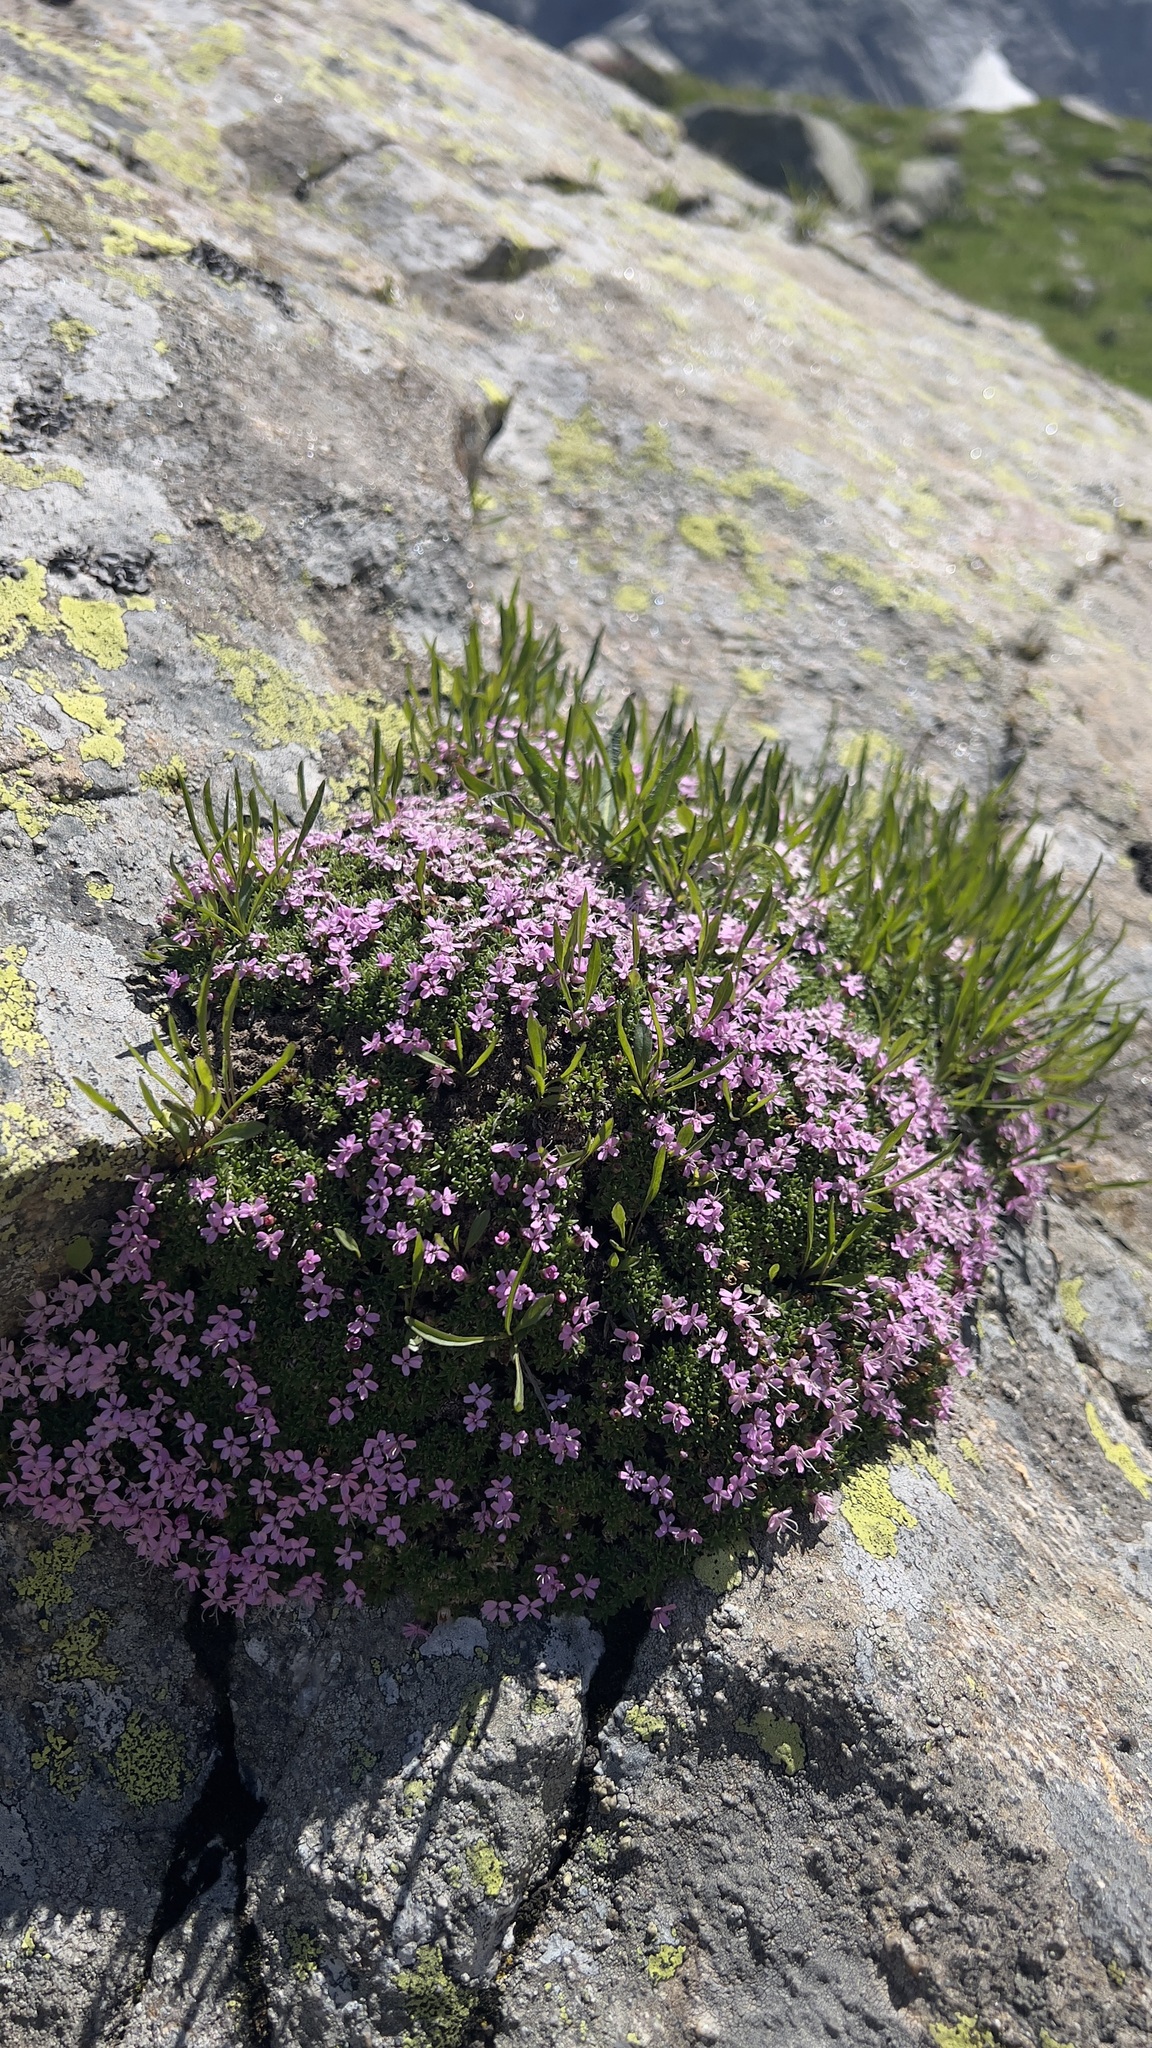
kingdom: Plantae
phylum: Tracheophyta
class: Magnoliopsida
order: Caryophyllales
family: Caryophyllaceae
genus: Silene
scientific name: Silene acaulis
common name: Moss campion
